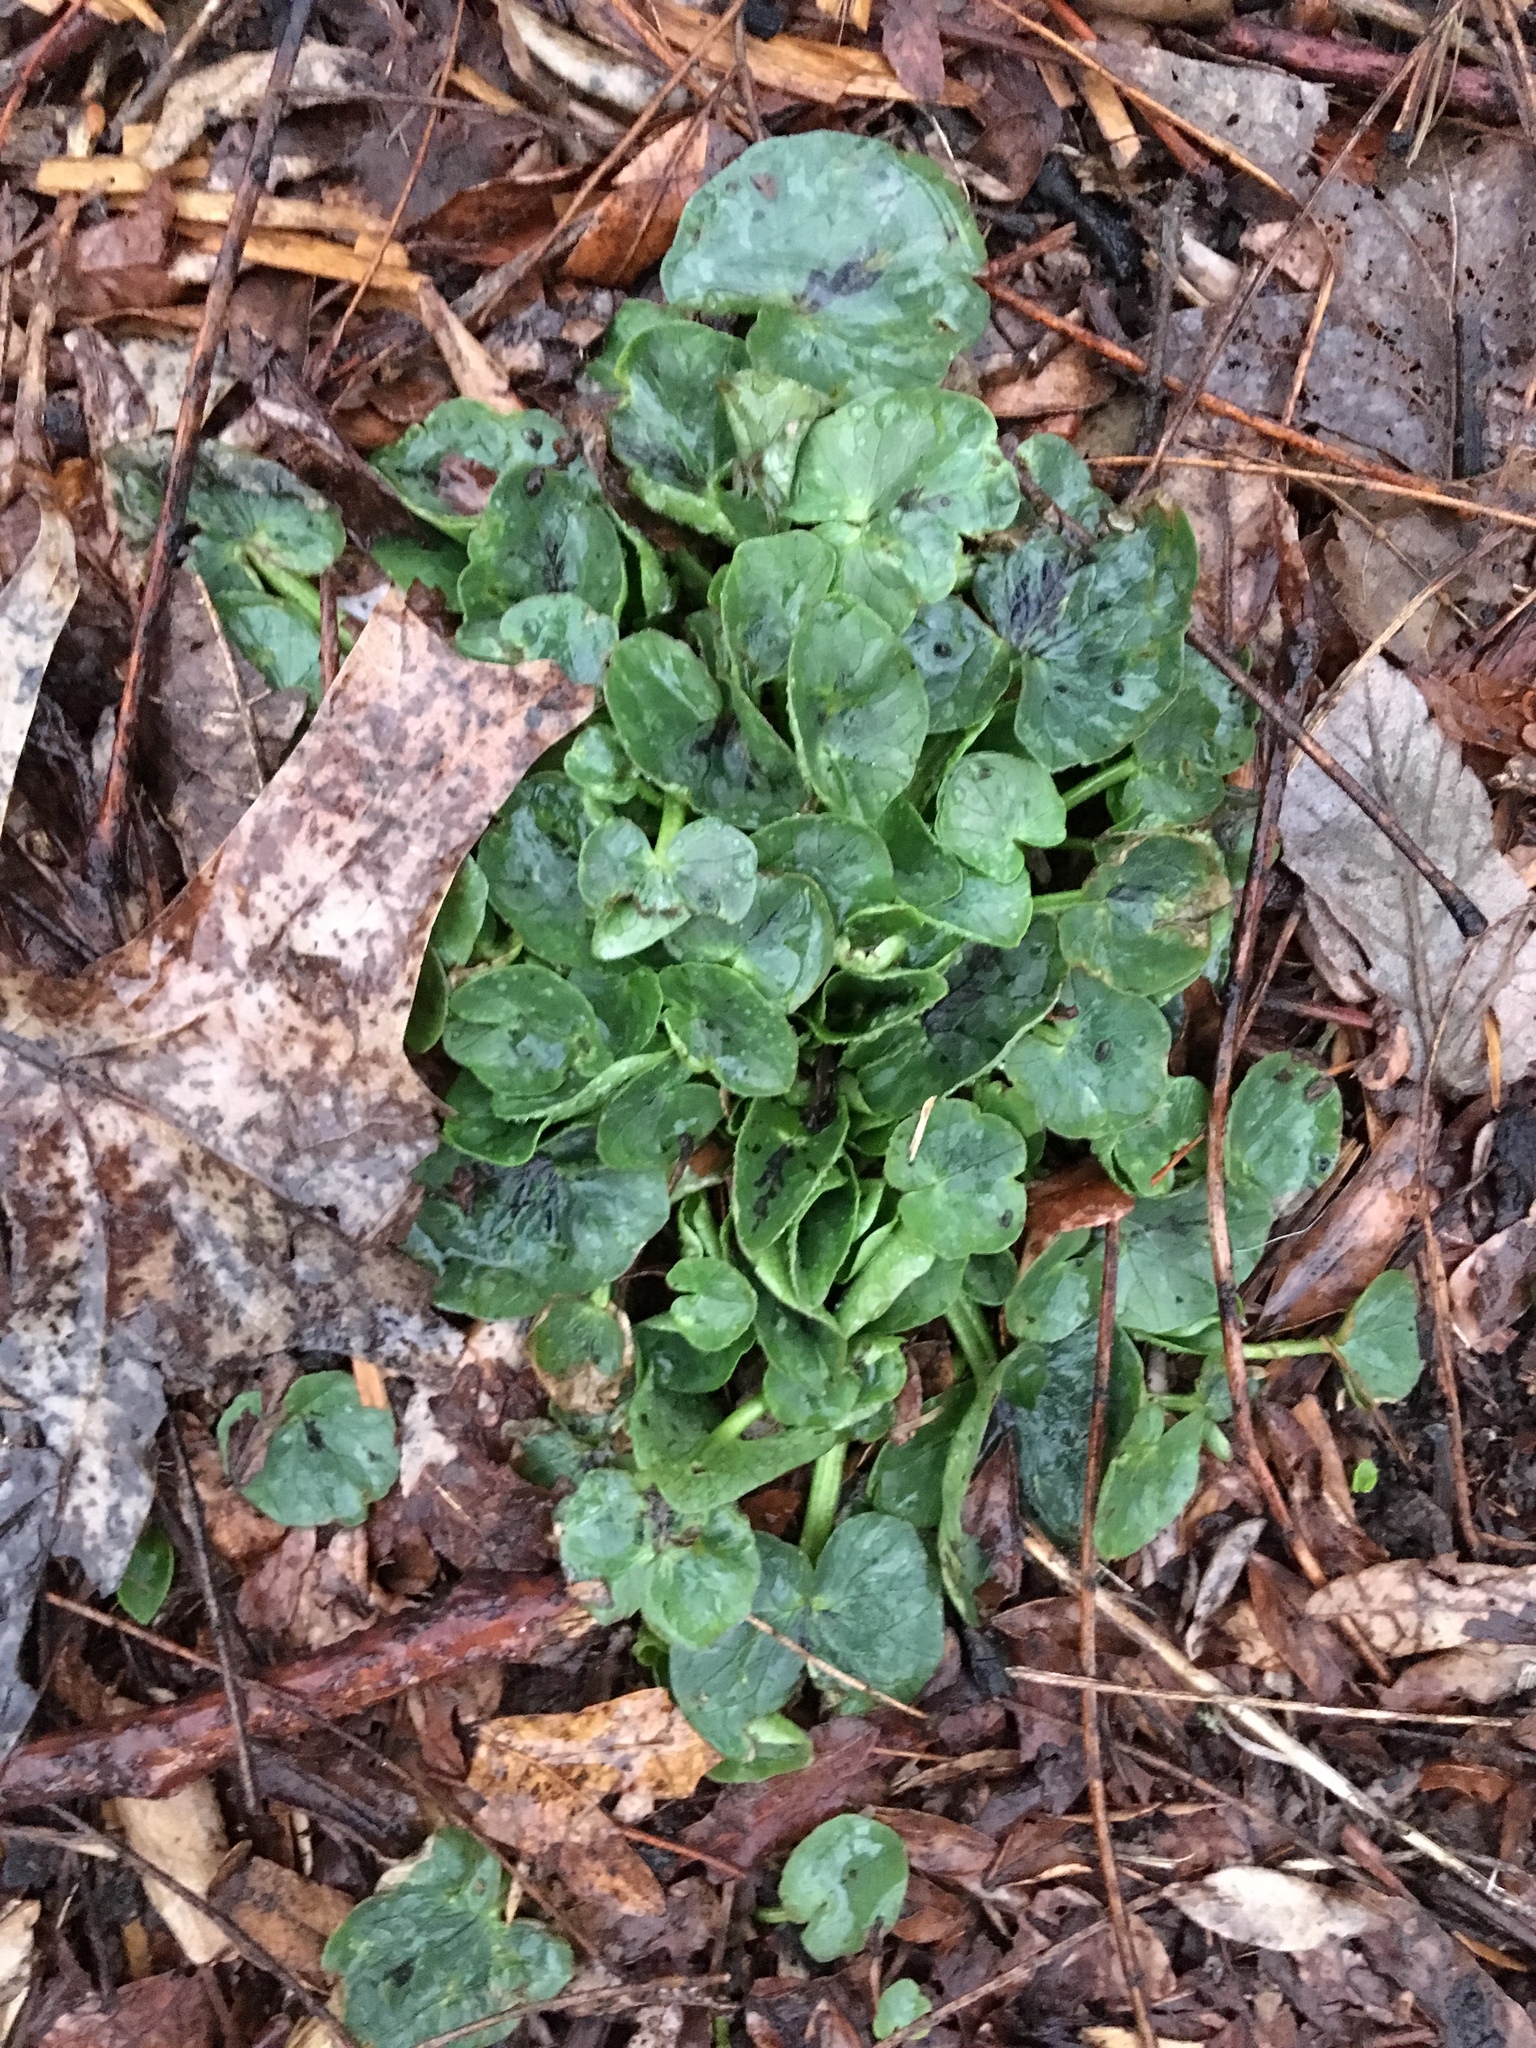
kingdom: Plantae
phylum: Tracheophyta
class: Magnoliopsida
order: Ranunculales
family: Ranunculaceae
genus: Ficaria
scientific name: Ficaria verna
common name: Lesser celandine
